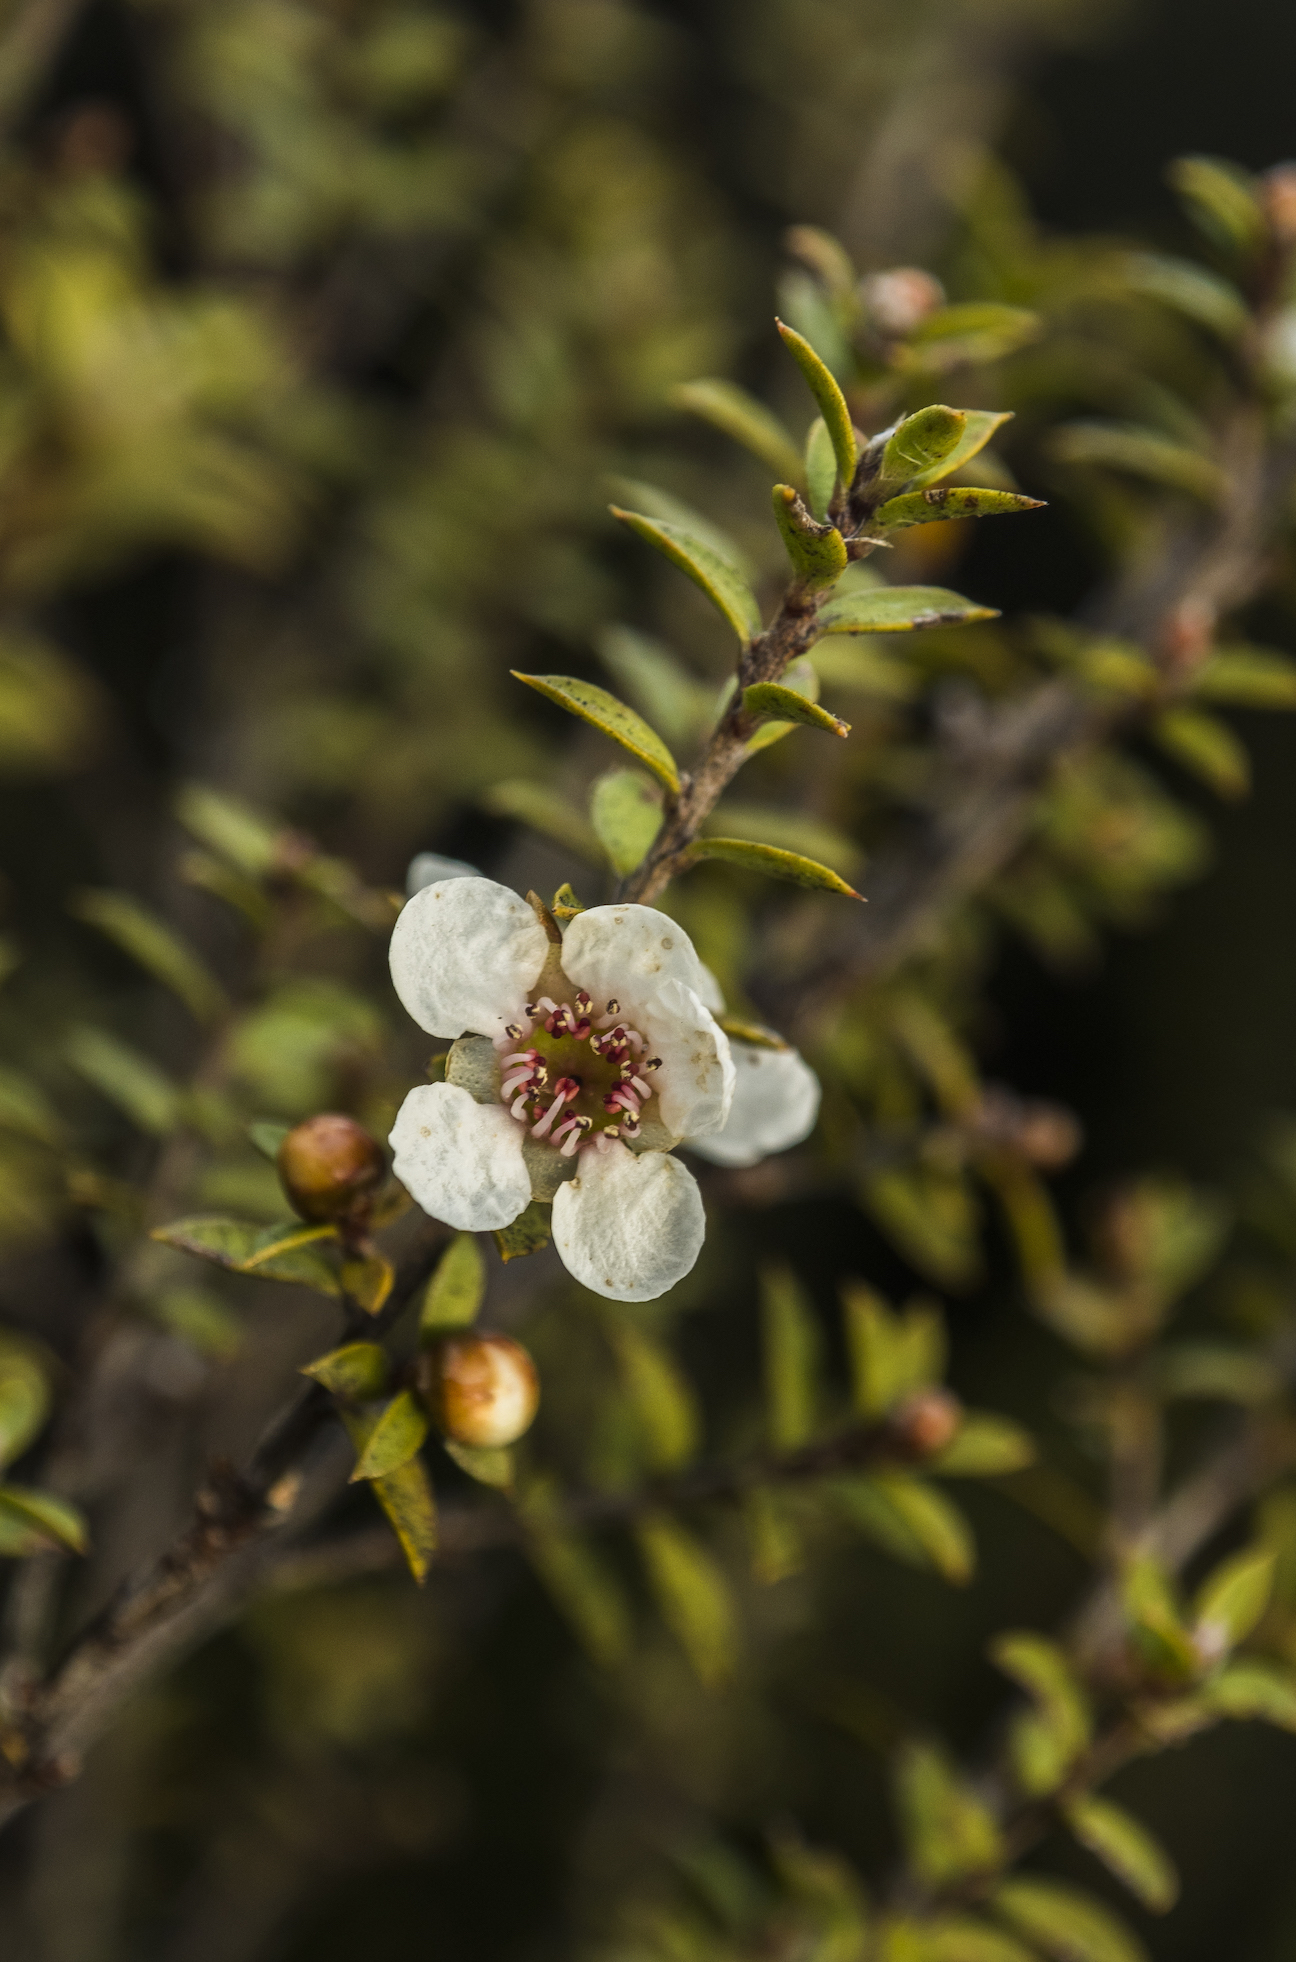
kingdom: Plantae
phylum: Tracheophyta
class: Magnoliopsida
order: Myrtales
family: Myrtaceae
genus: Leptospermum
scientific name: Leptospermum scoparium
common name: Broom tea-tree
